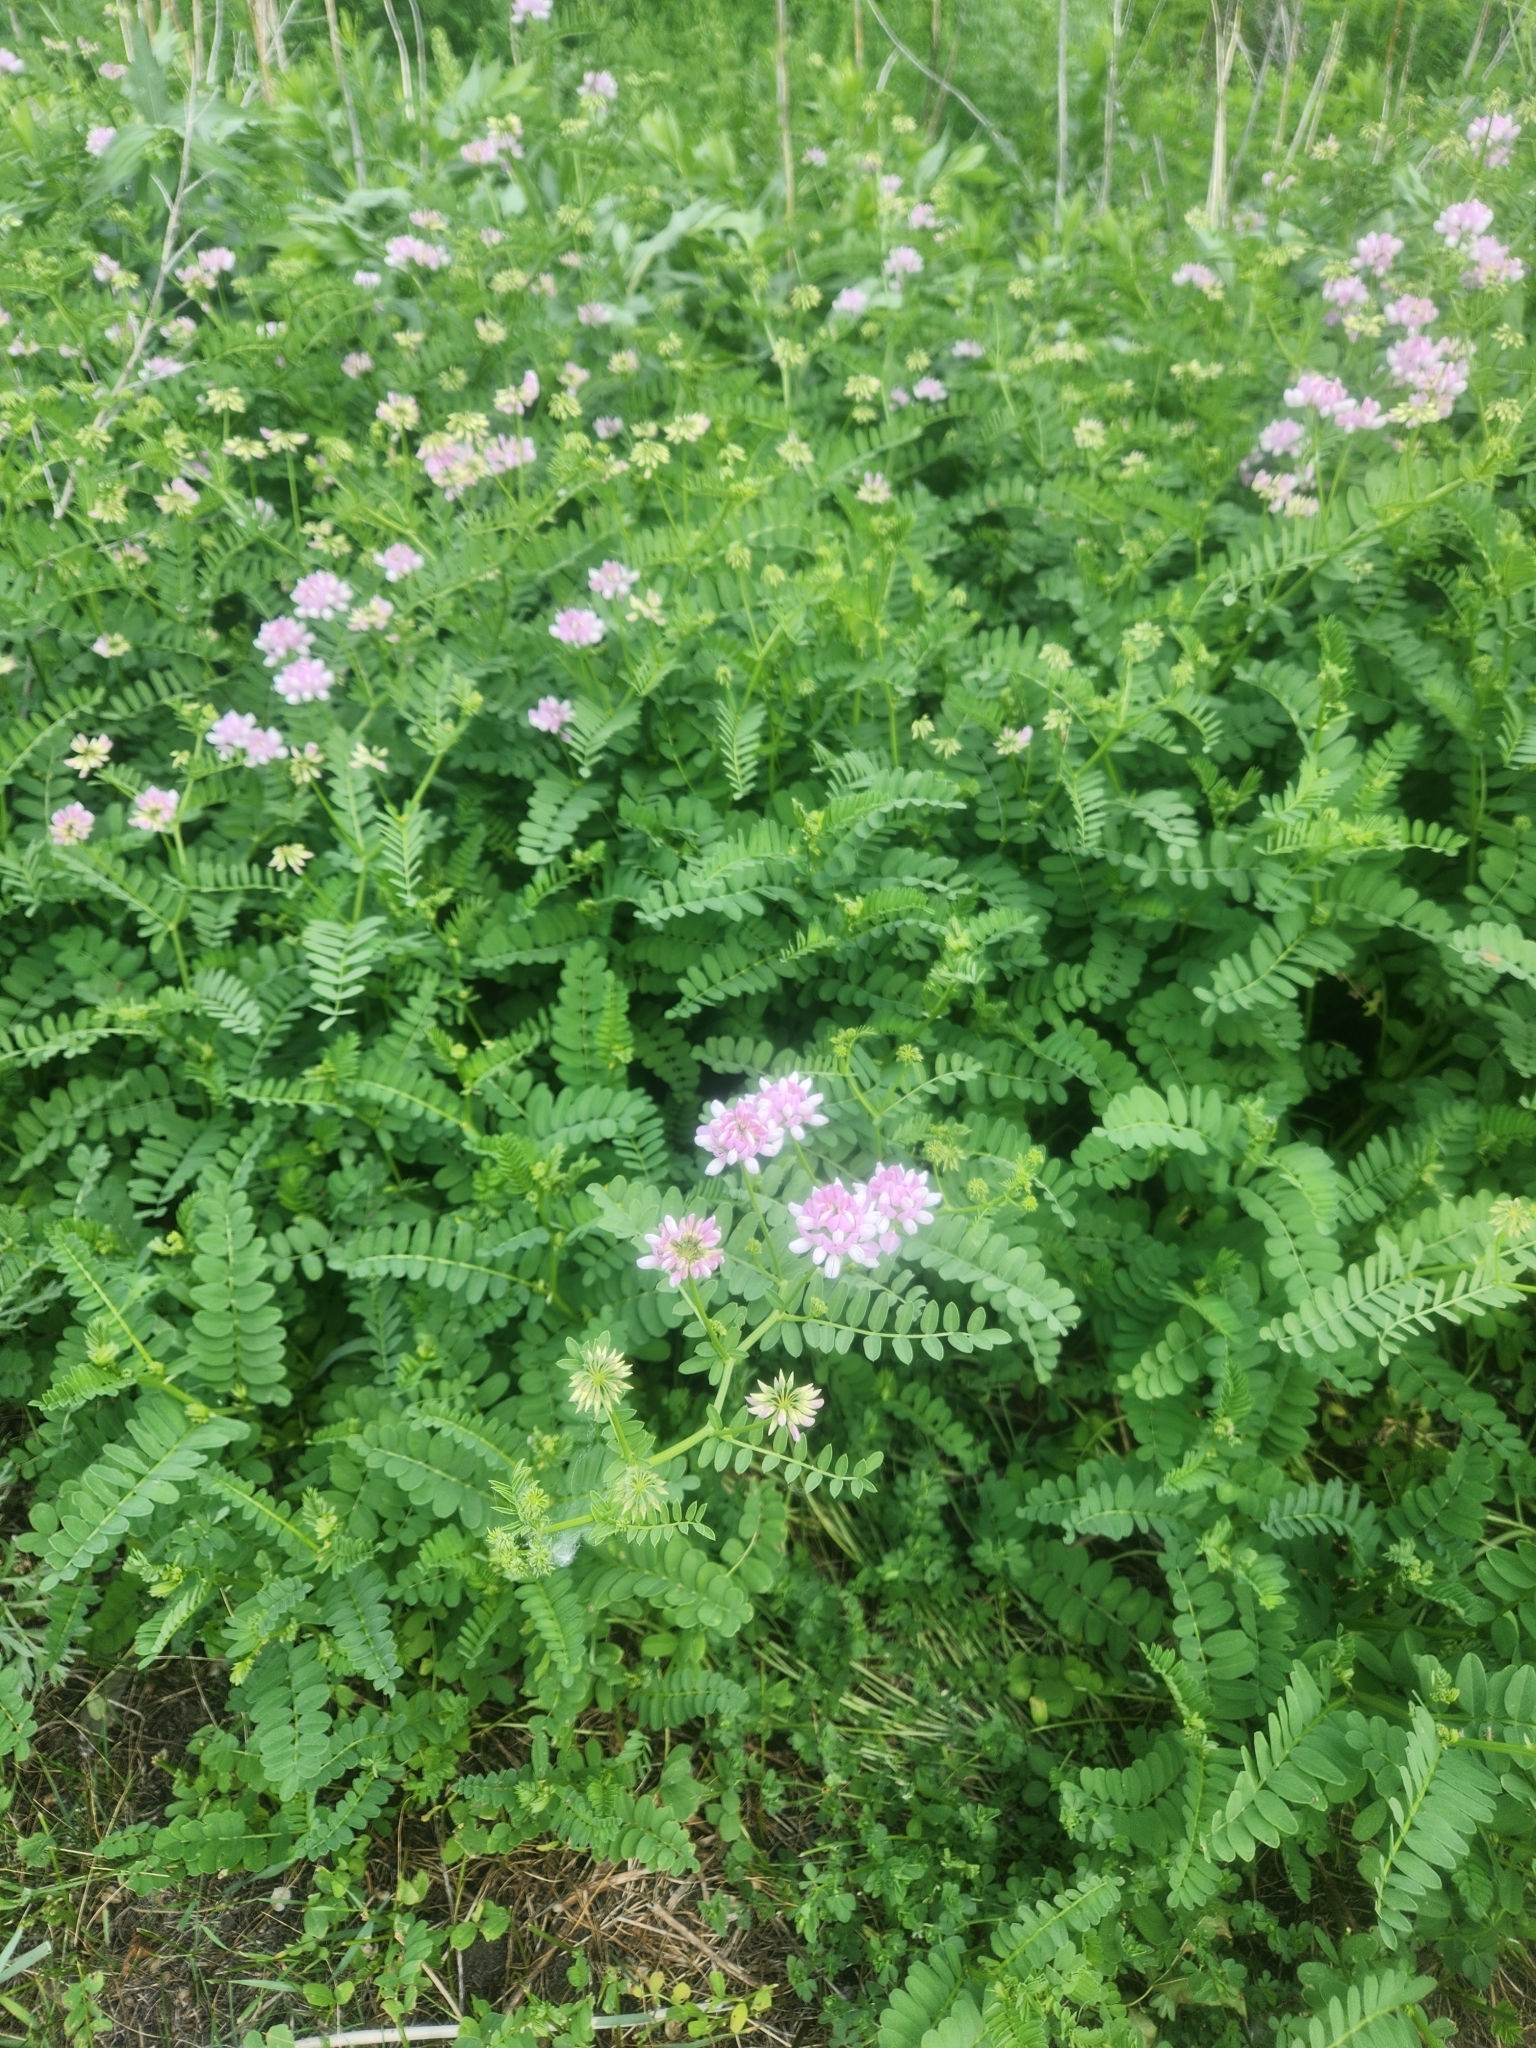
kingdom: Plantae
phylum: Tracheophyta
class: Magnoliopsida
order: Fabales
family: Fabaceae
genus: Coronilla
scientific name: Coronilla varia
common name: Crownvetch
